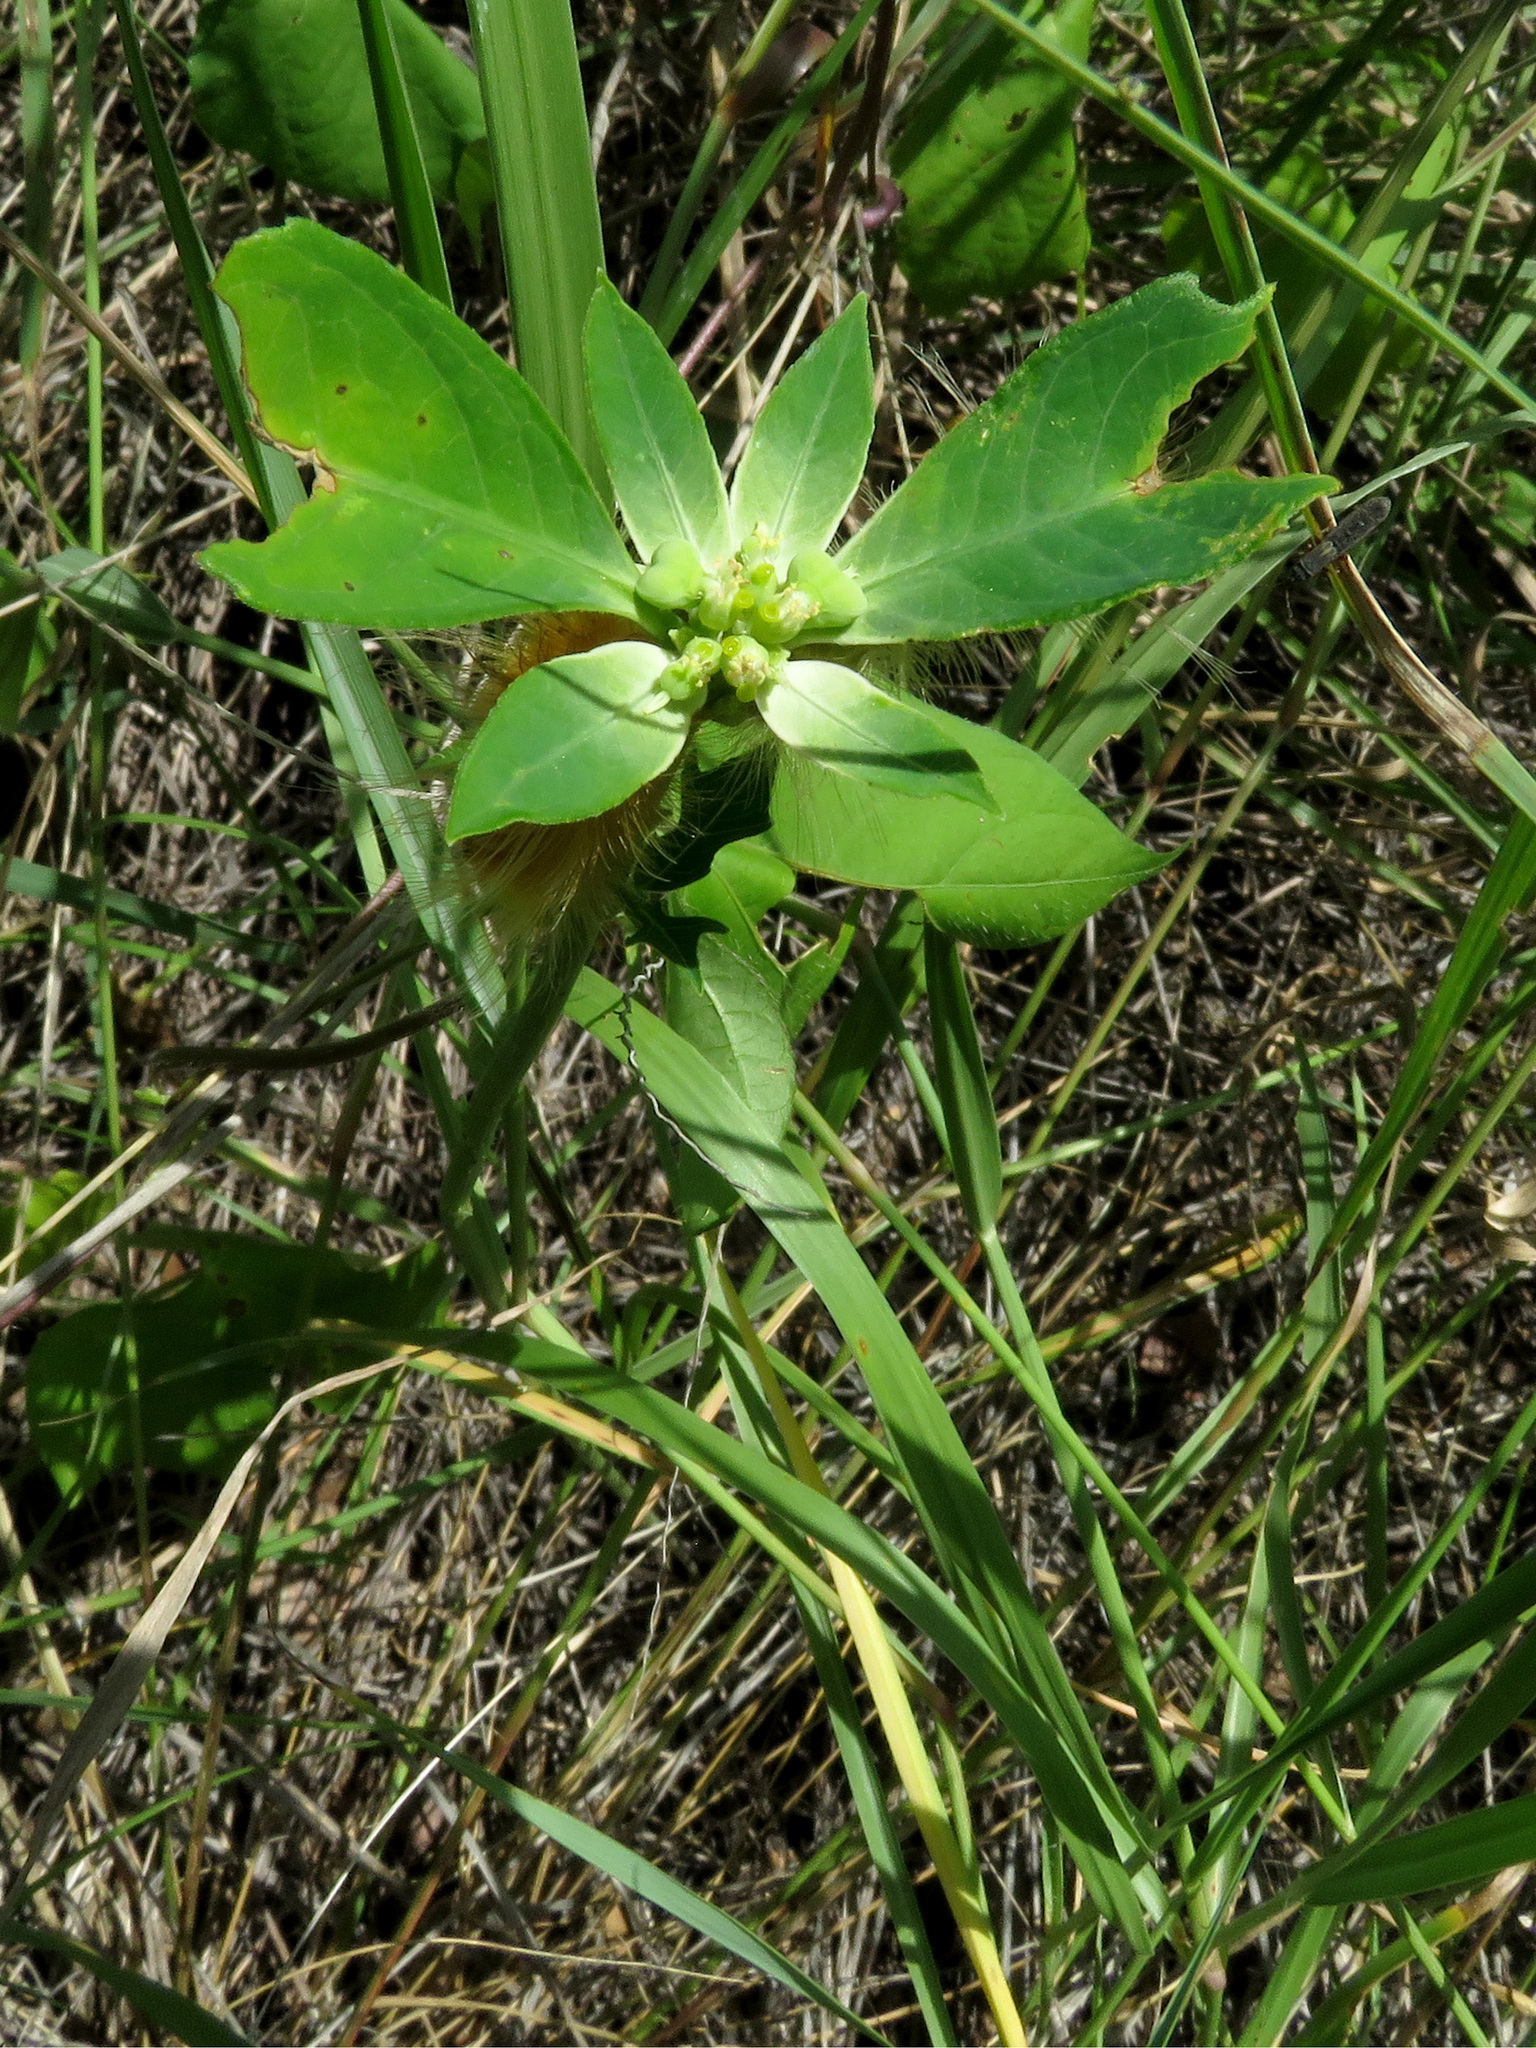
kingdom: Plantae
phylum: Tracheophyta
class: Magnoliopsida
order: Malpighiales
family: Euphorbiaceae
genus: Euphorbia
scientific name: Euphorbia heterophylla
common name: Mexican fireplant
